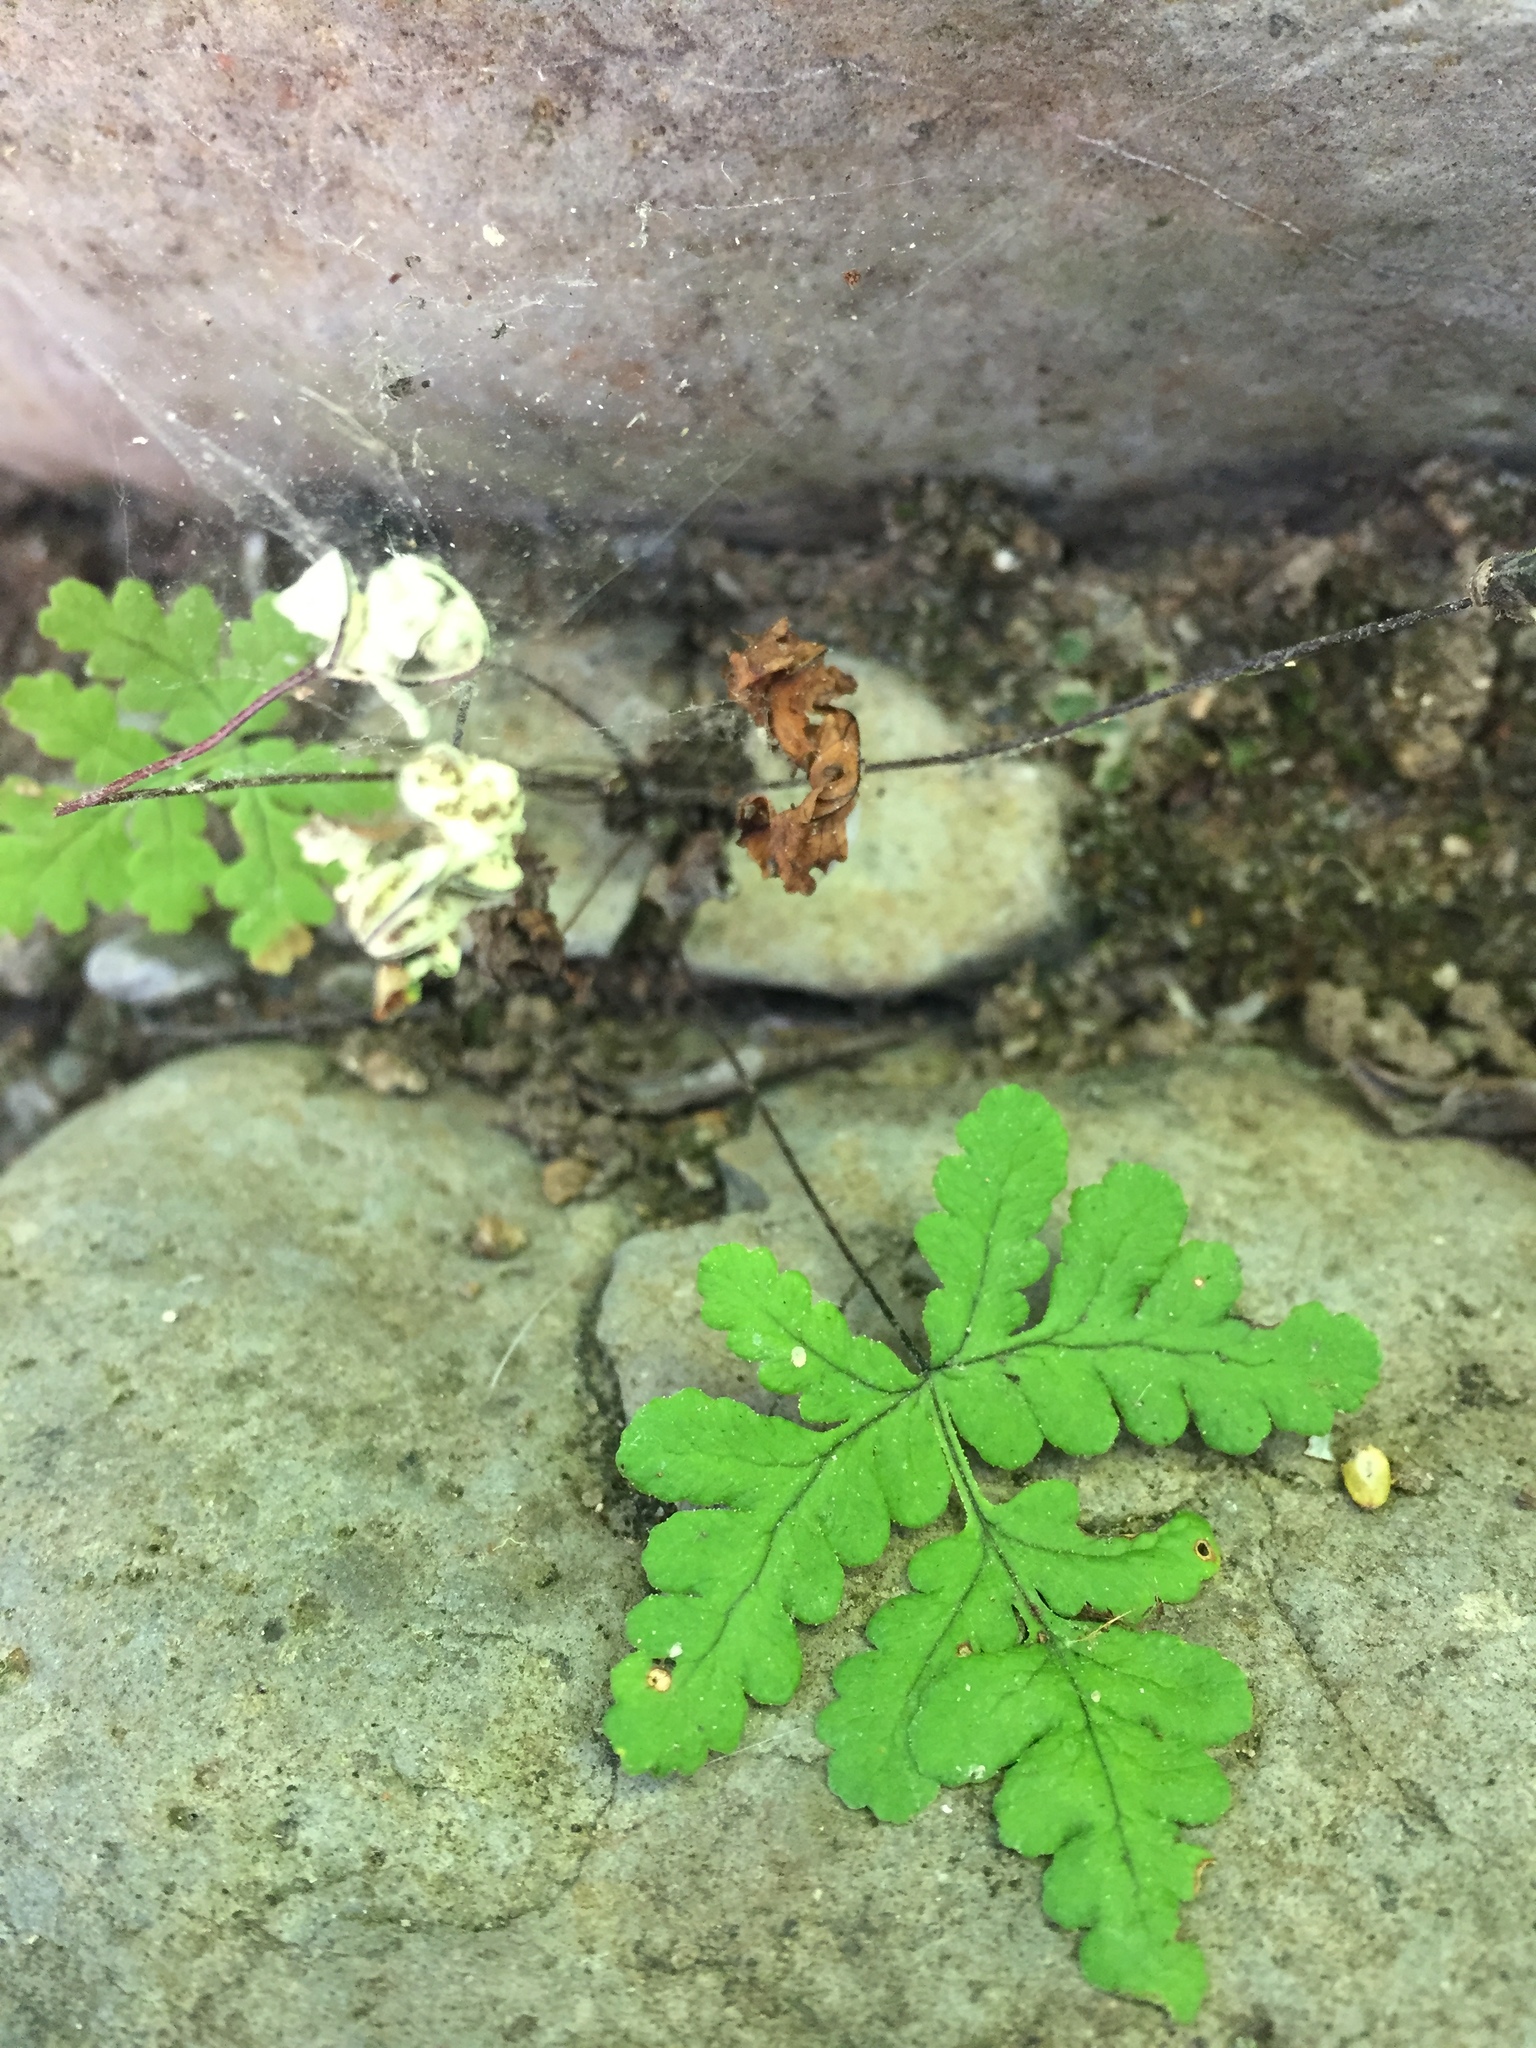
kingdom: Plantae
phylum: Tracheophyta
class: Polypodiopsida
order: Polypodiales
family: Pteridaceae
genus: Pentagramma
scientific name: Pentagramma triangularis
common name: Gold fern
